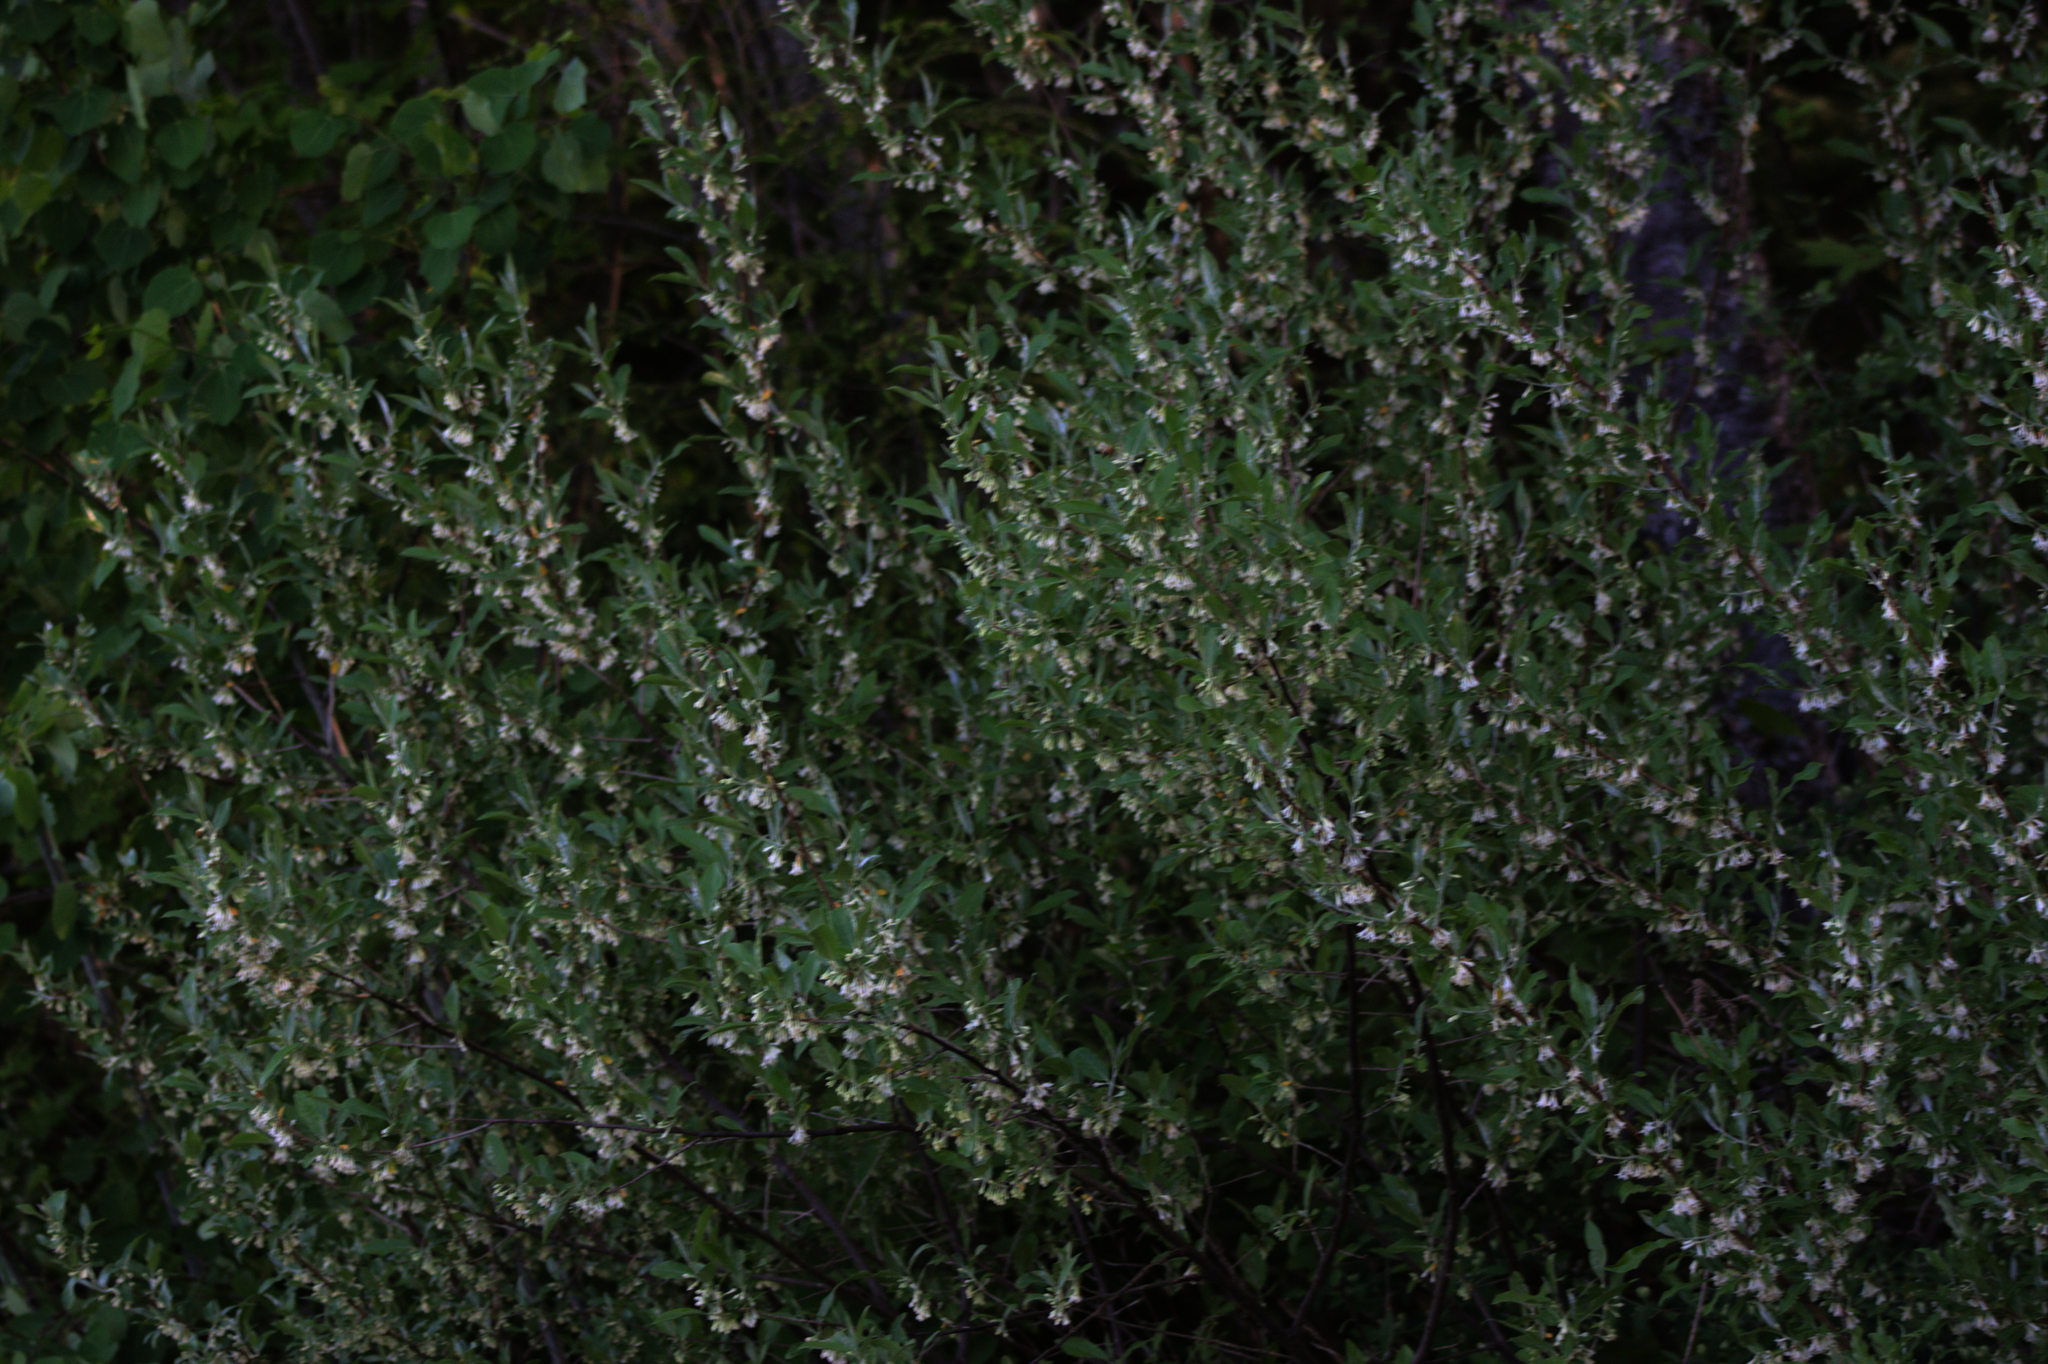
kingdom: Plantae
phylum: Tracheophyta
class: Magnoliopsida
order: Rosales
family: Elaeagnaceae
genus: Elaeagnus
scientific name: Elaeagnus umbellata
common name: Autumn olive
